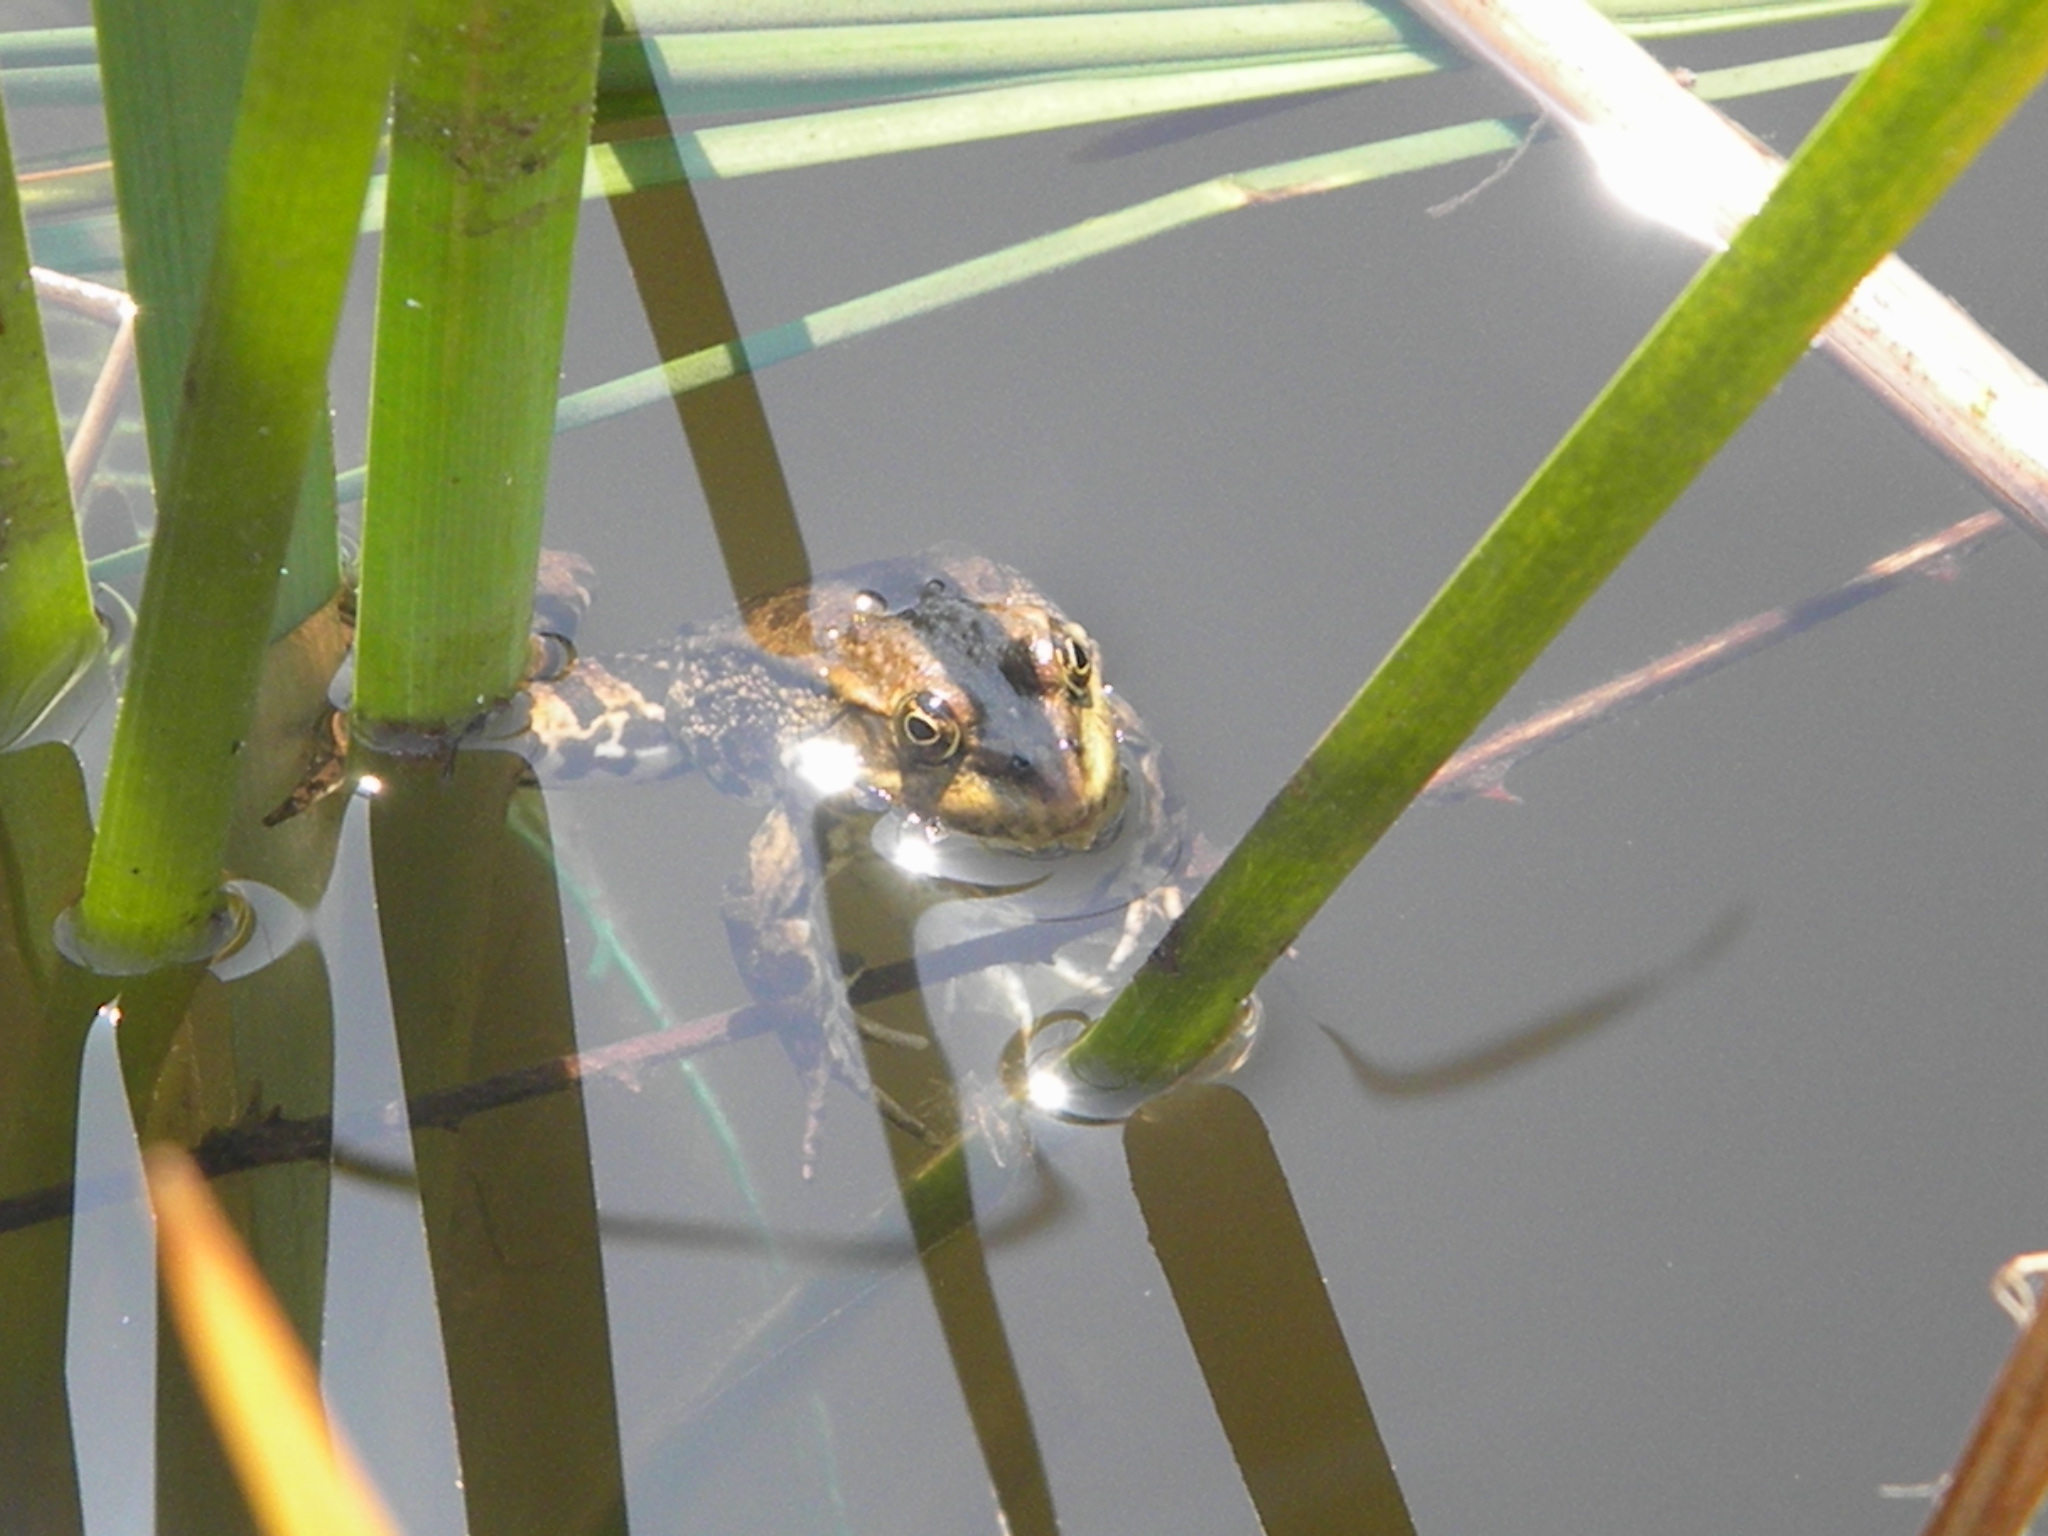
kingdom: Animalia
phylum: Chordata
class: Amphibia
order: Anura
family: Ranidae
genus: Pelophylax
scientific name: Pelophylax ridibundus
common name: Marsh frog
